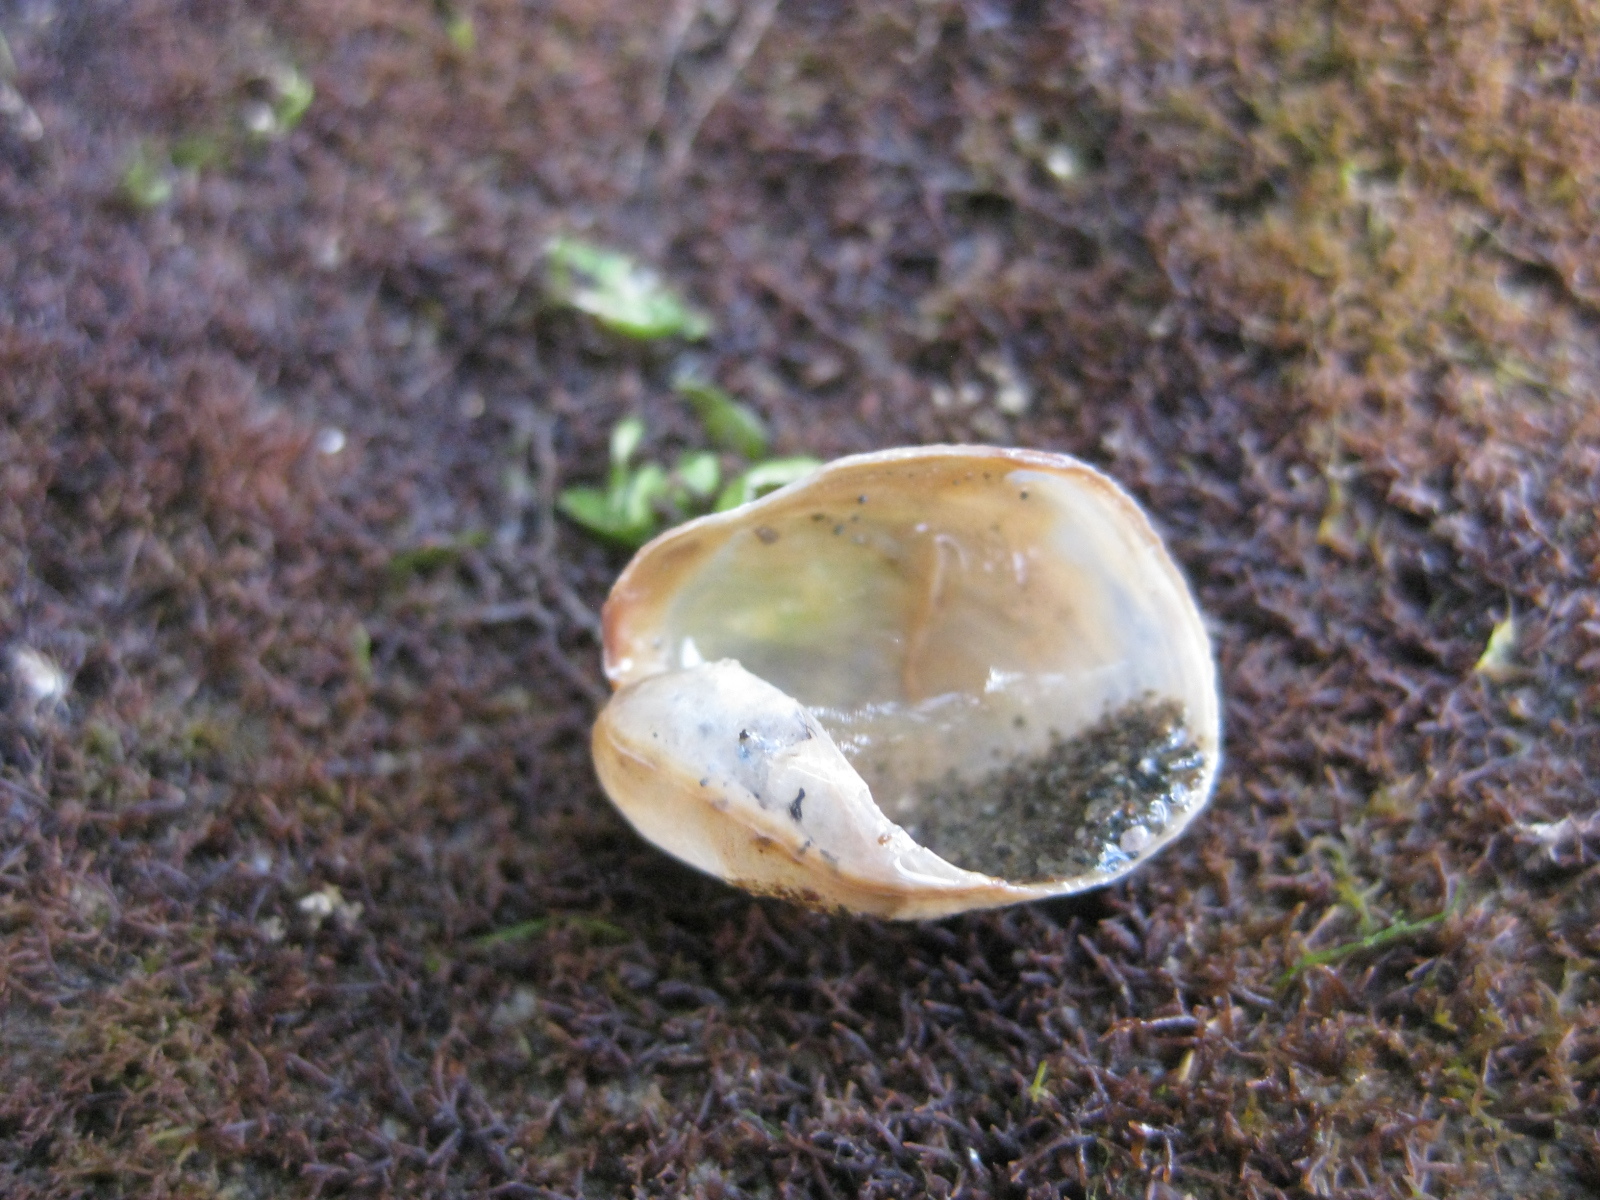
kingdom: Animalia
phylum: Mollusca
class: Gastropoda
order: Cephalaspidea
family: Philinidae
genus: Philine
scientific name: Philine angasi
